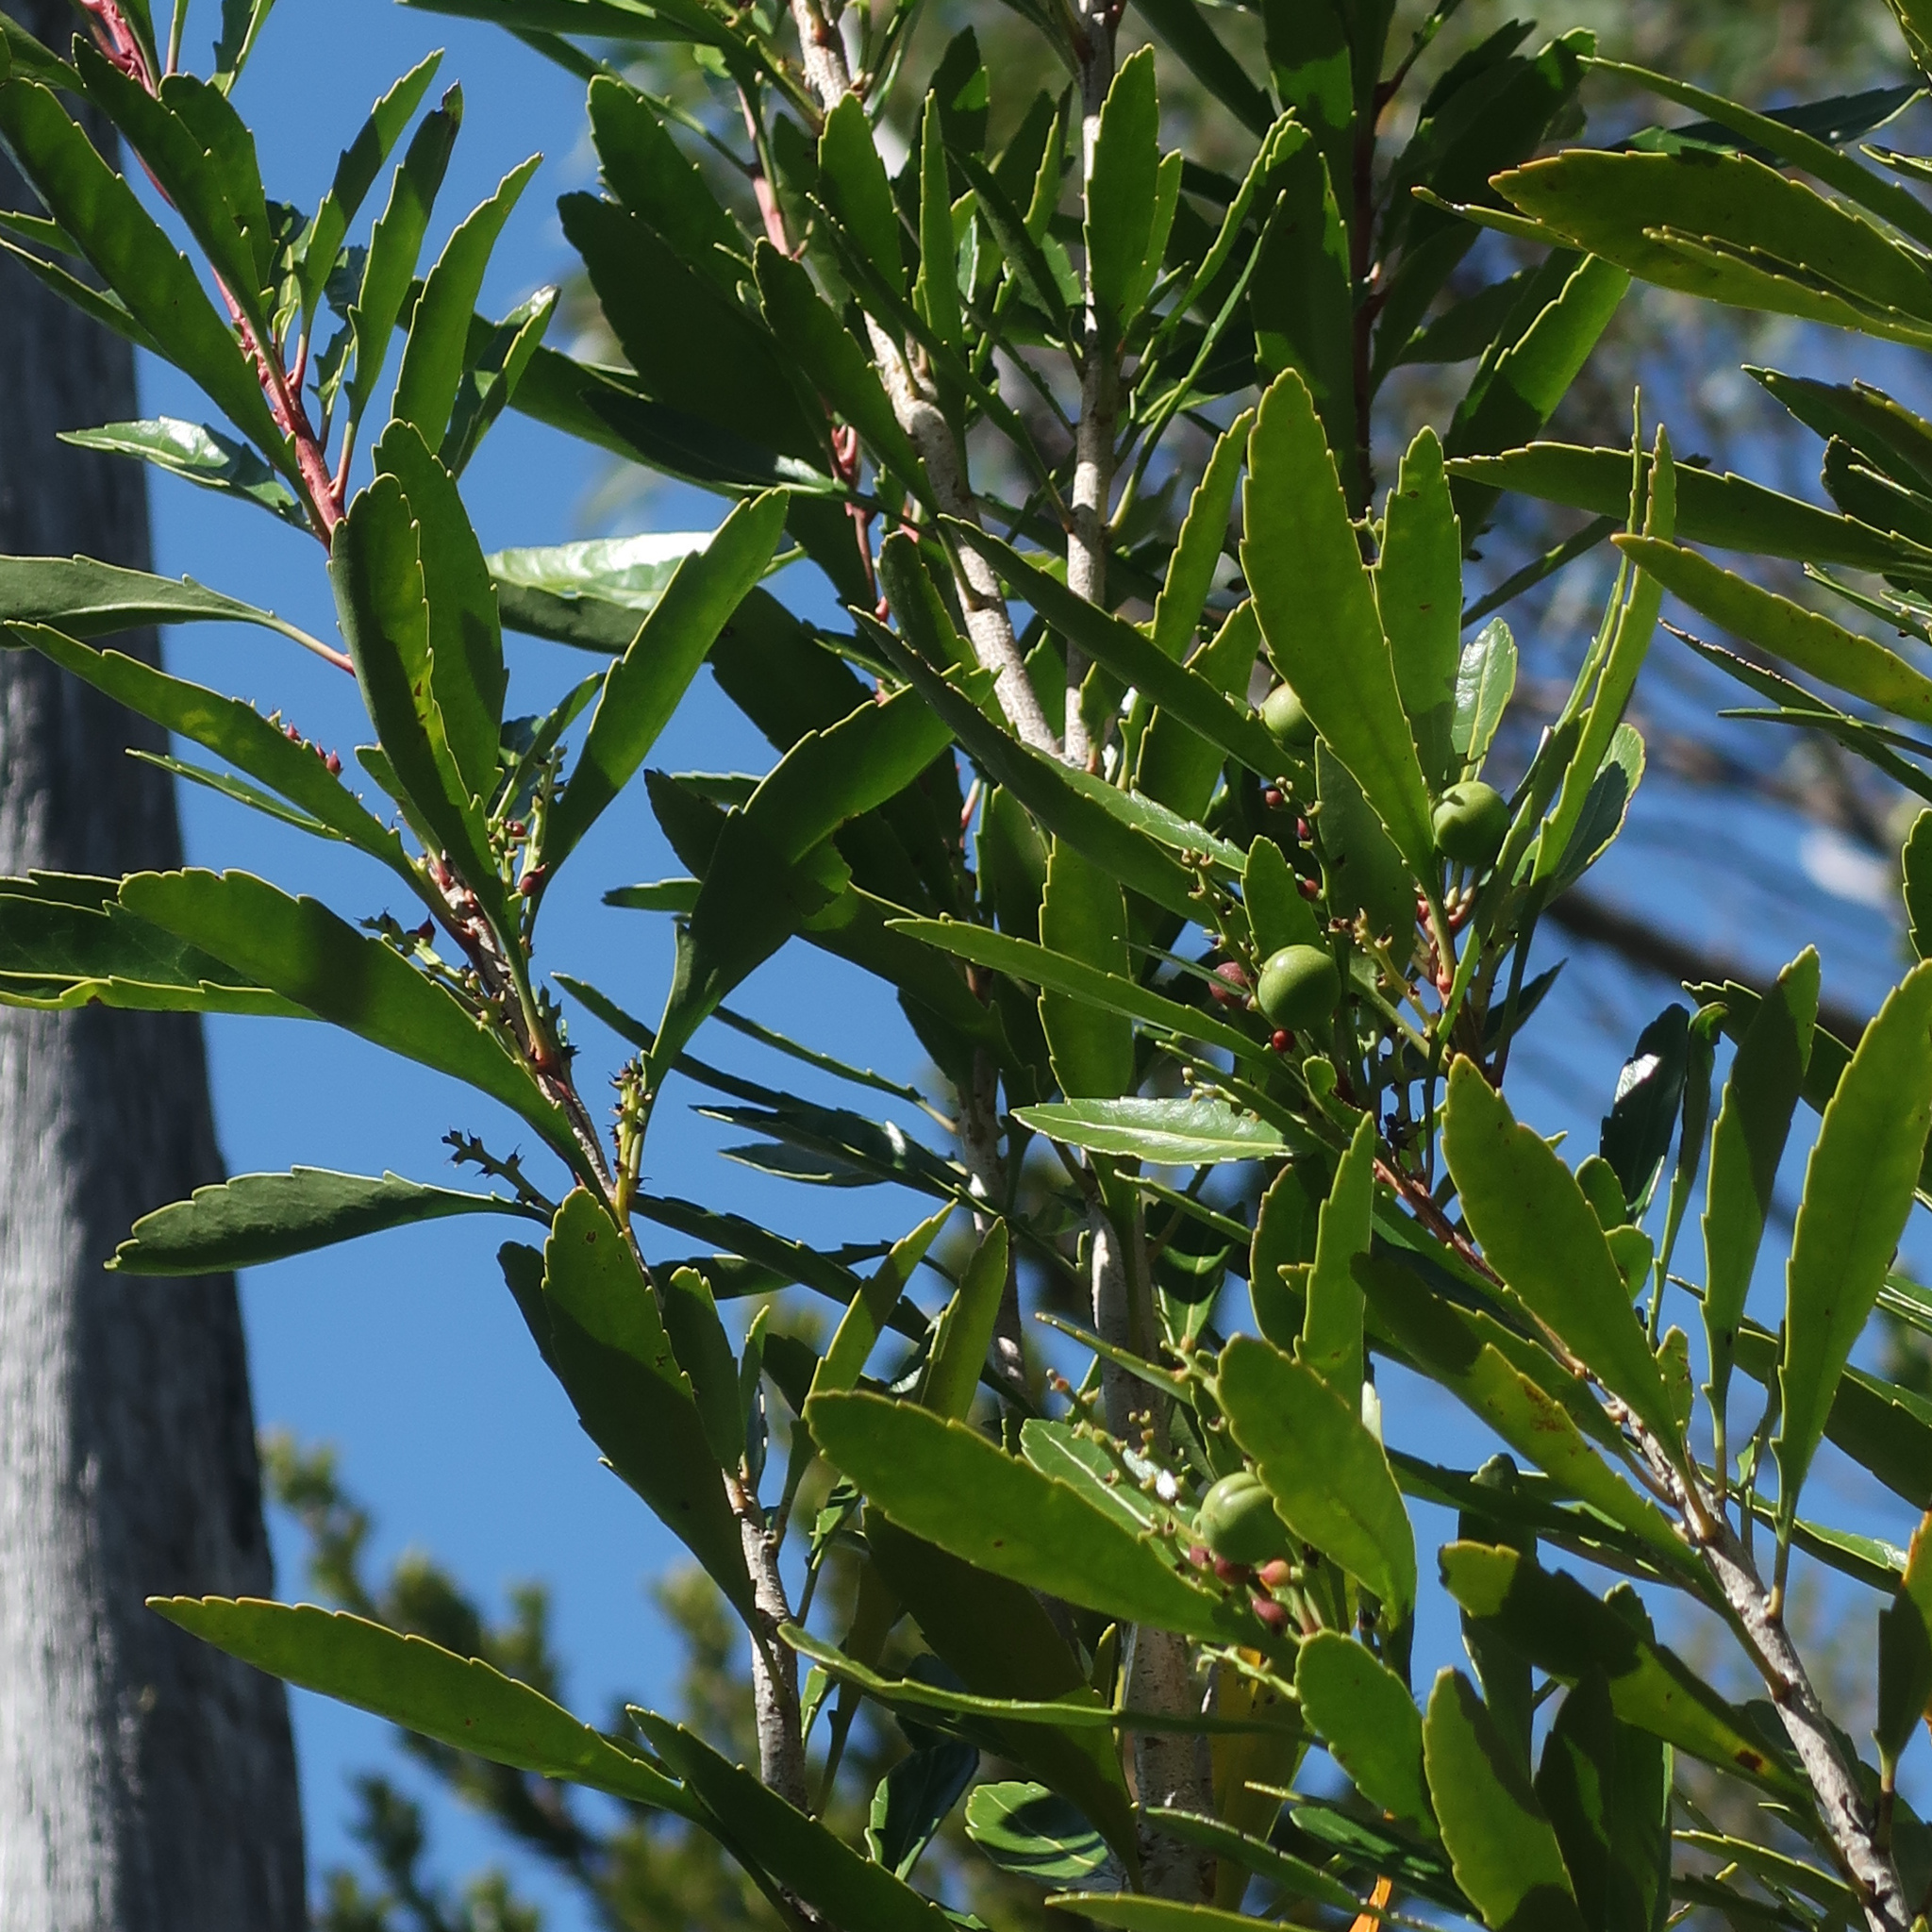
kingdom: Plantae
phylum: Tracheophyta
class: Magnoliopsida
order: Proteales
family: Proteaceae
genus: Cenarrhenes
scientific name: Cenarrhenes nitida
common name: Native plum
